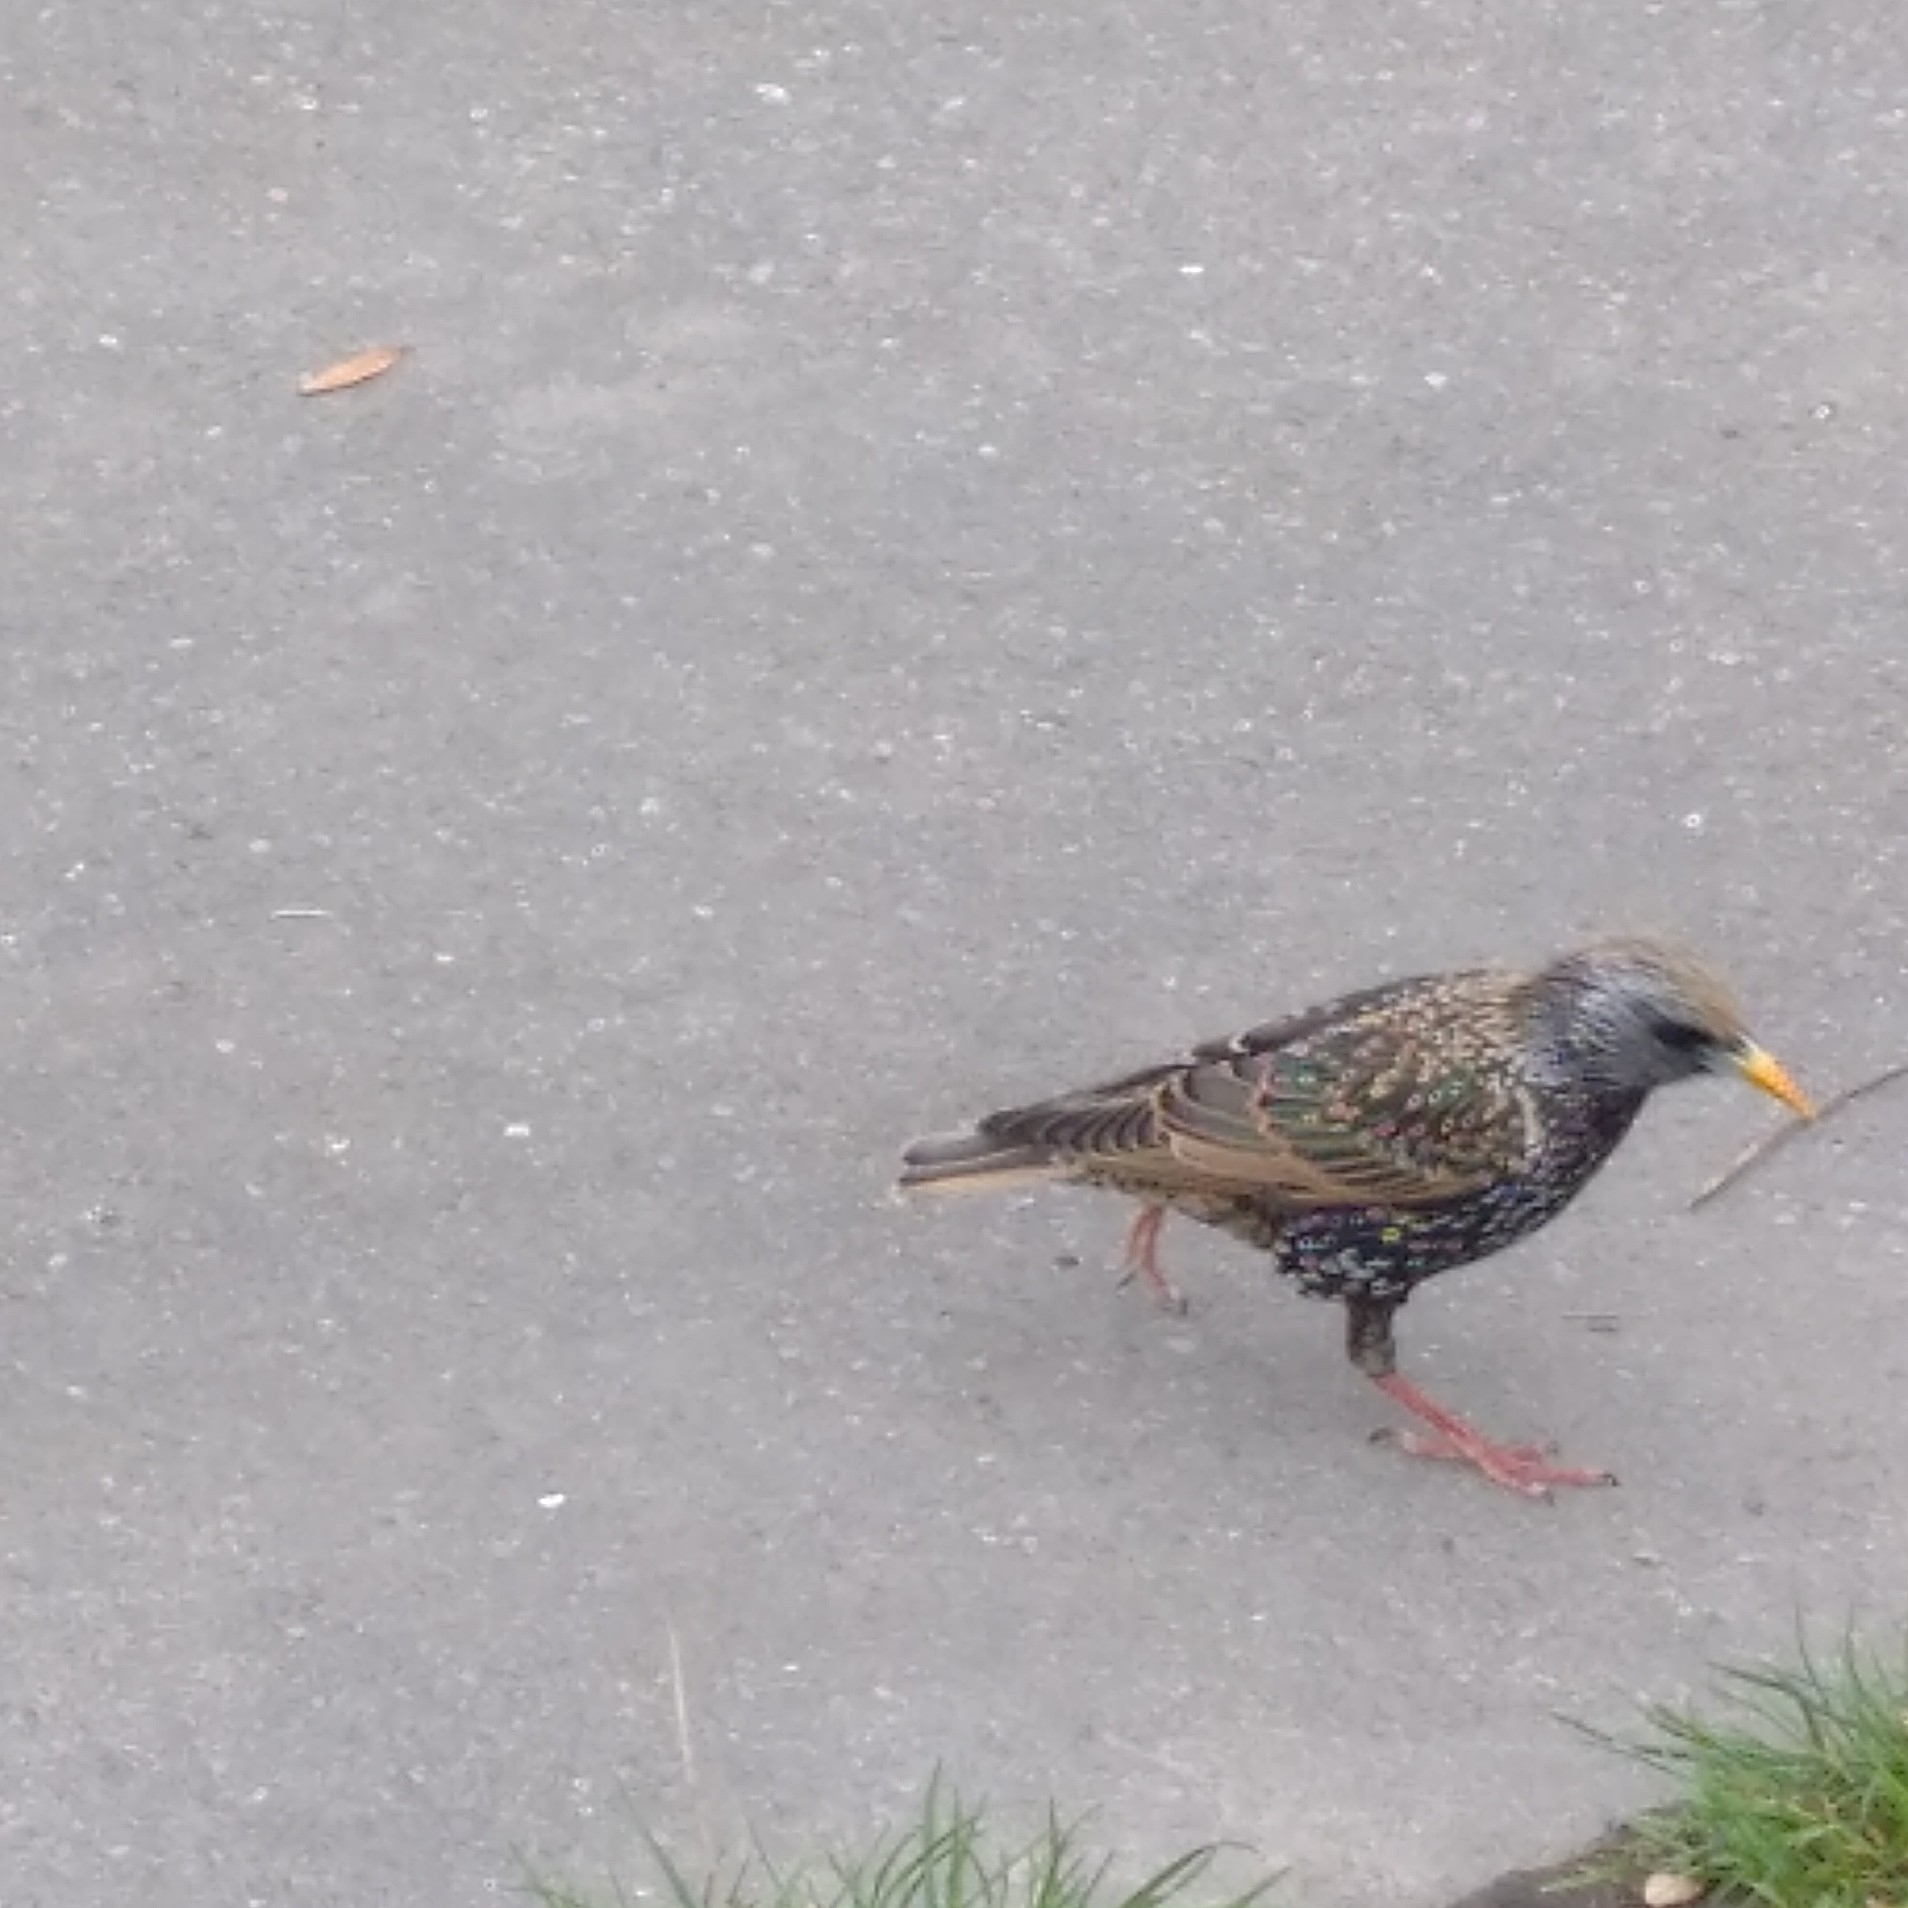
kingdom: Animalia
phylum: Chordata
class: Aves
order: Passeriformes
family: Sturnidae
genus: Sturnus
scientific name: Sturnus vulgaris
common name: Common starling
